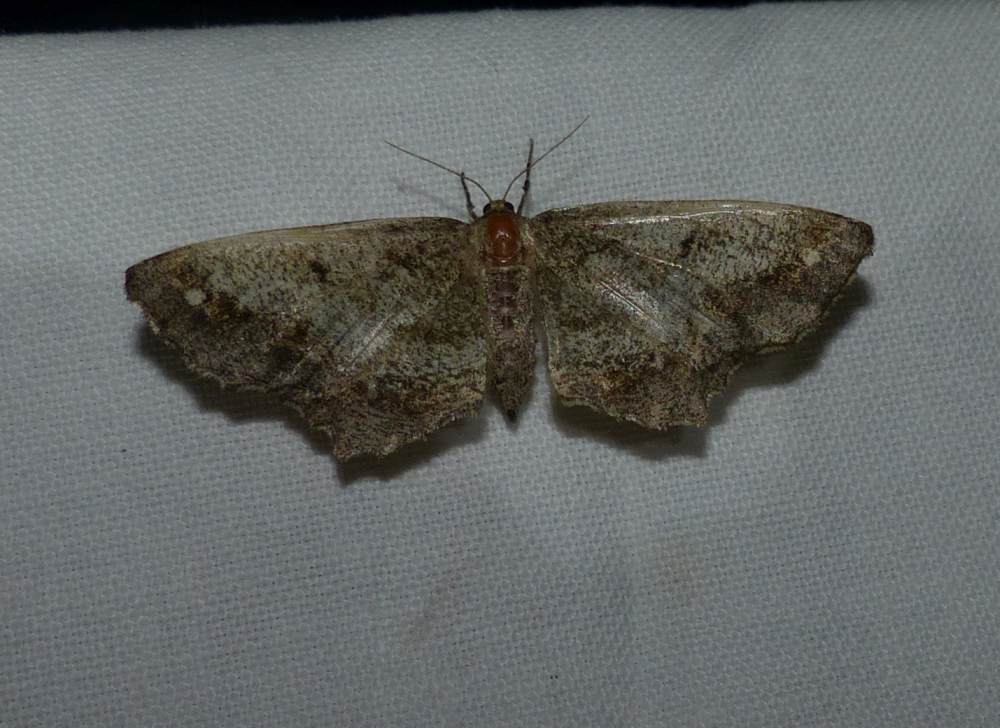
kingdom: Animalia
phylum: Arthropoda
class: Insecta
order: Lepidoptera
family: Geometridae
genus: Hypagyrtis
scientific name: Hypagyrtis unipunctata
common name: One-spotted variant
